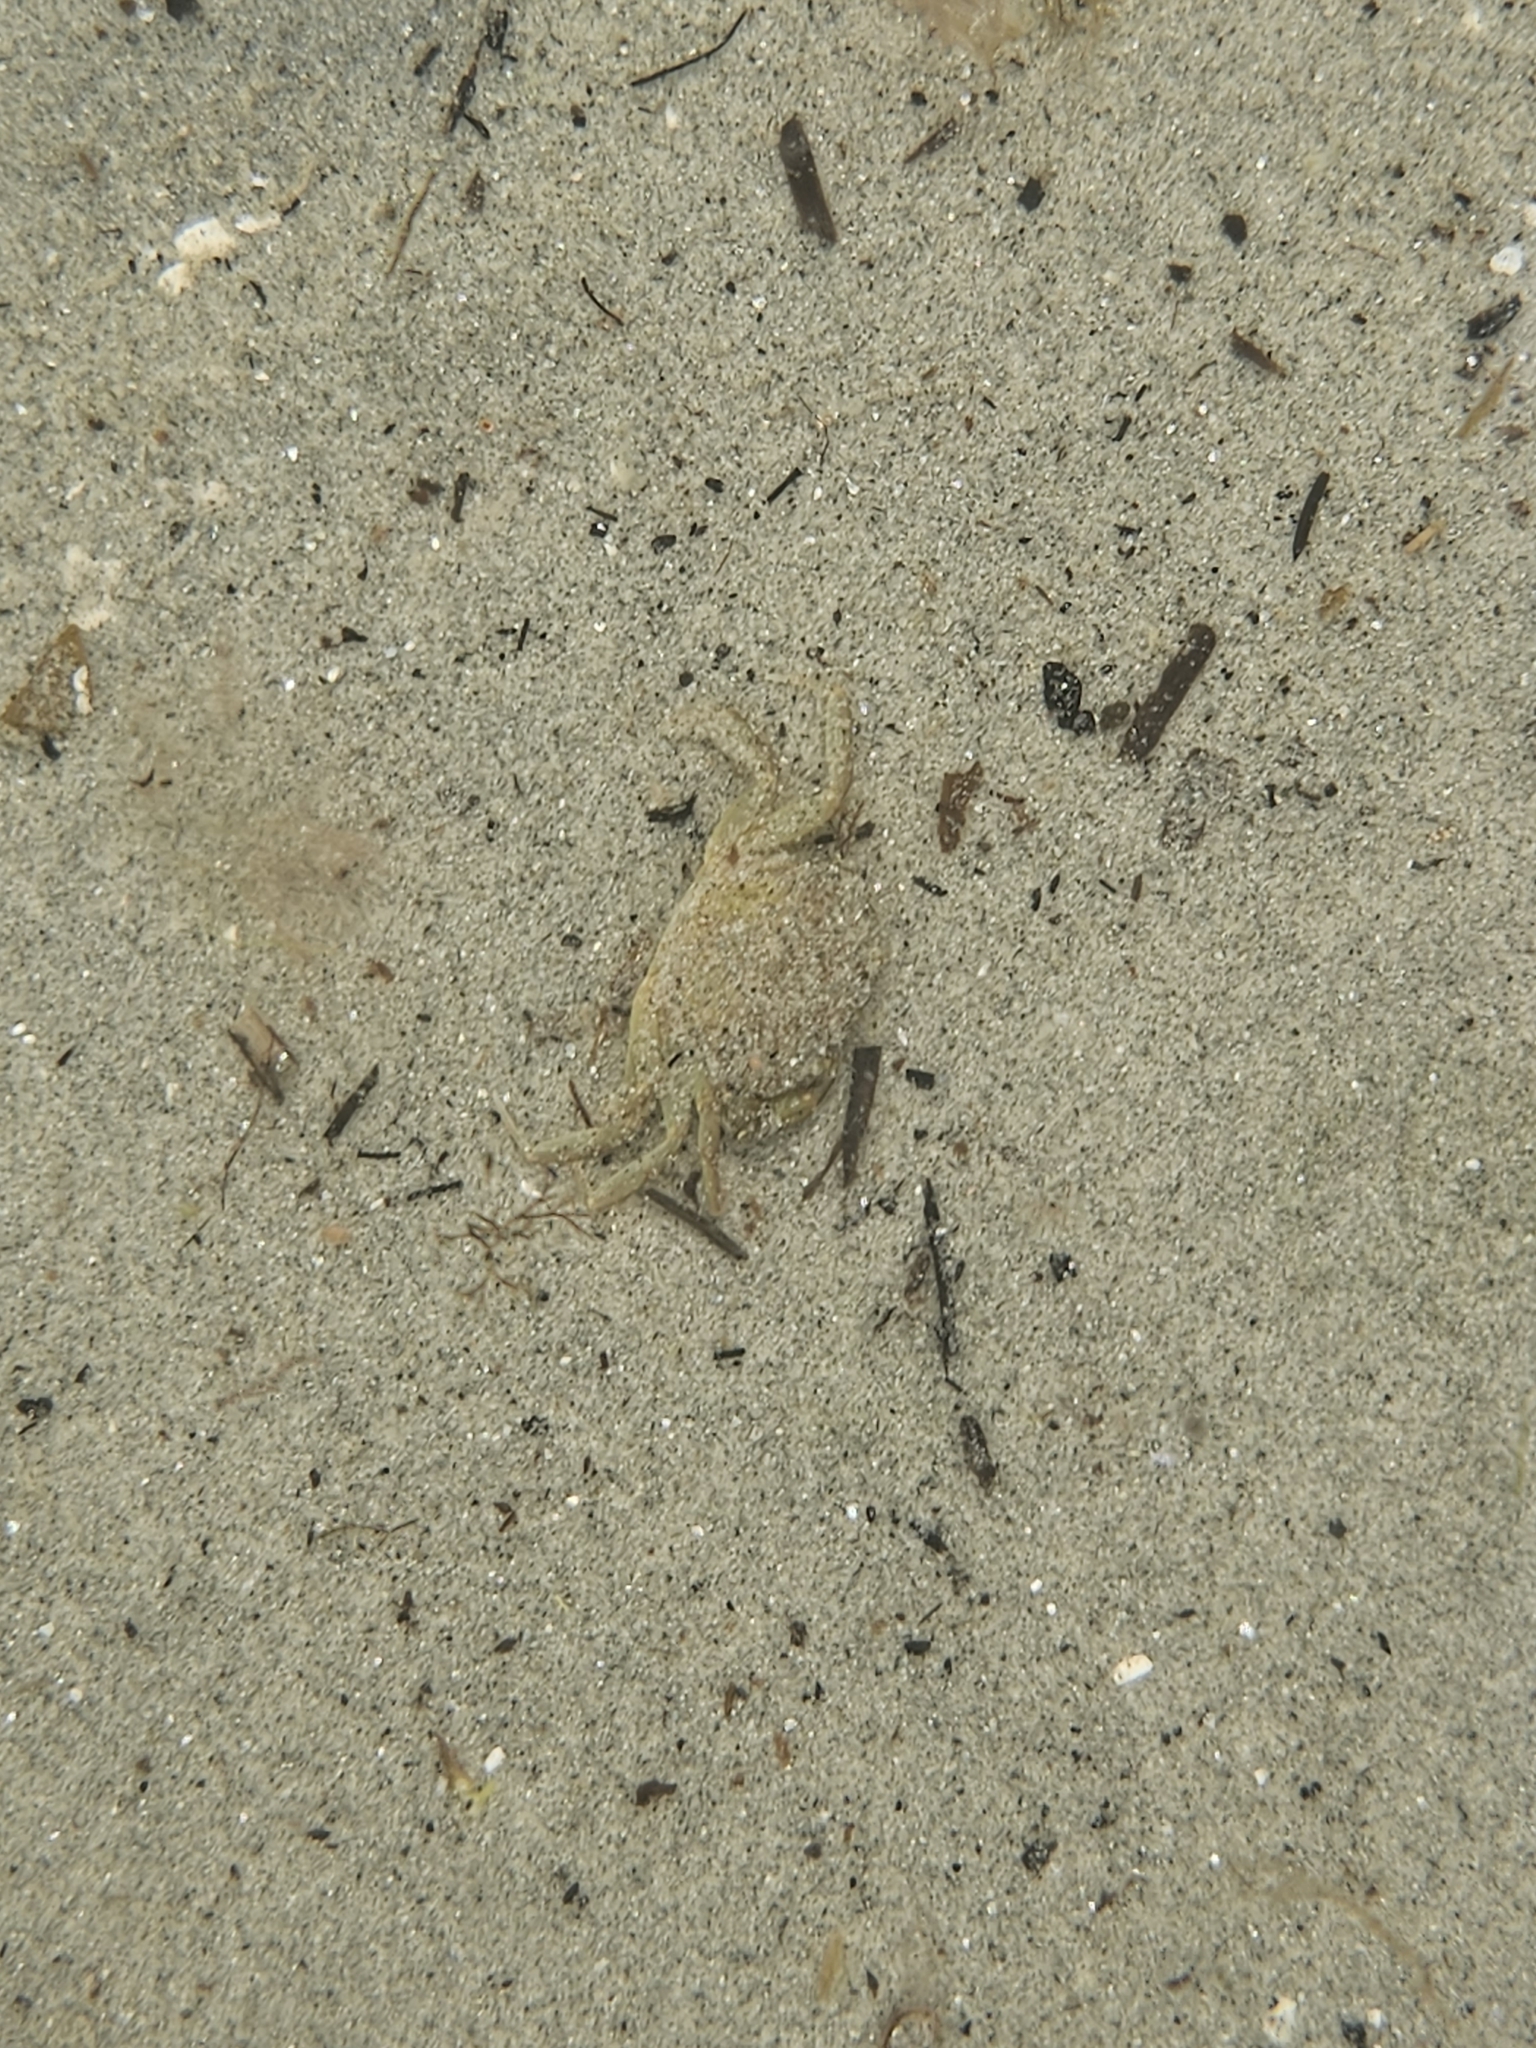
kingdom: Animalia
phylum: Arthropoda
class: Malacostraca
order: Decapoda
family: Carcinidae
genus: Carcinus
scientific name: Carcinus maenas
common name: European green crab
